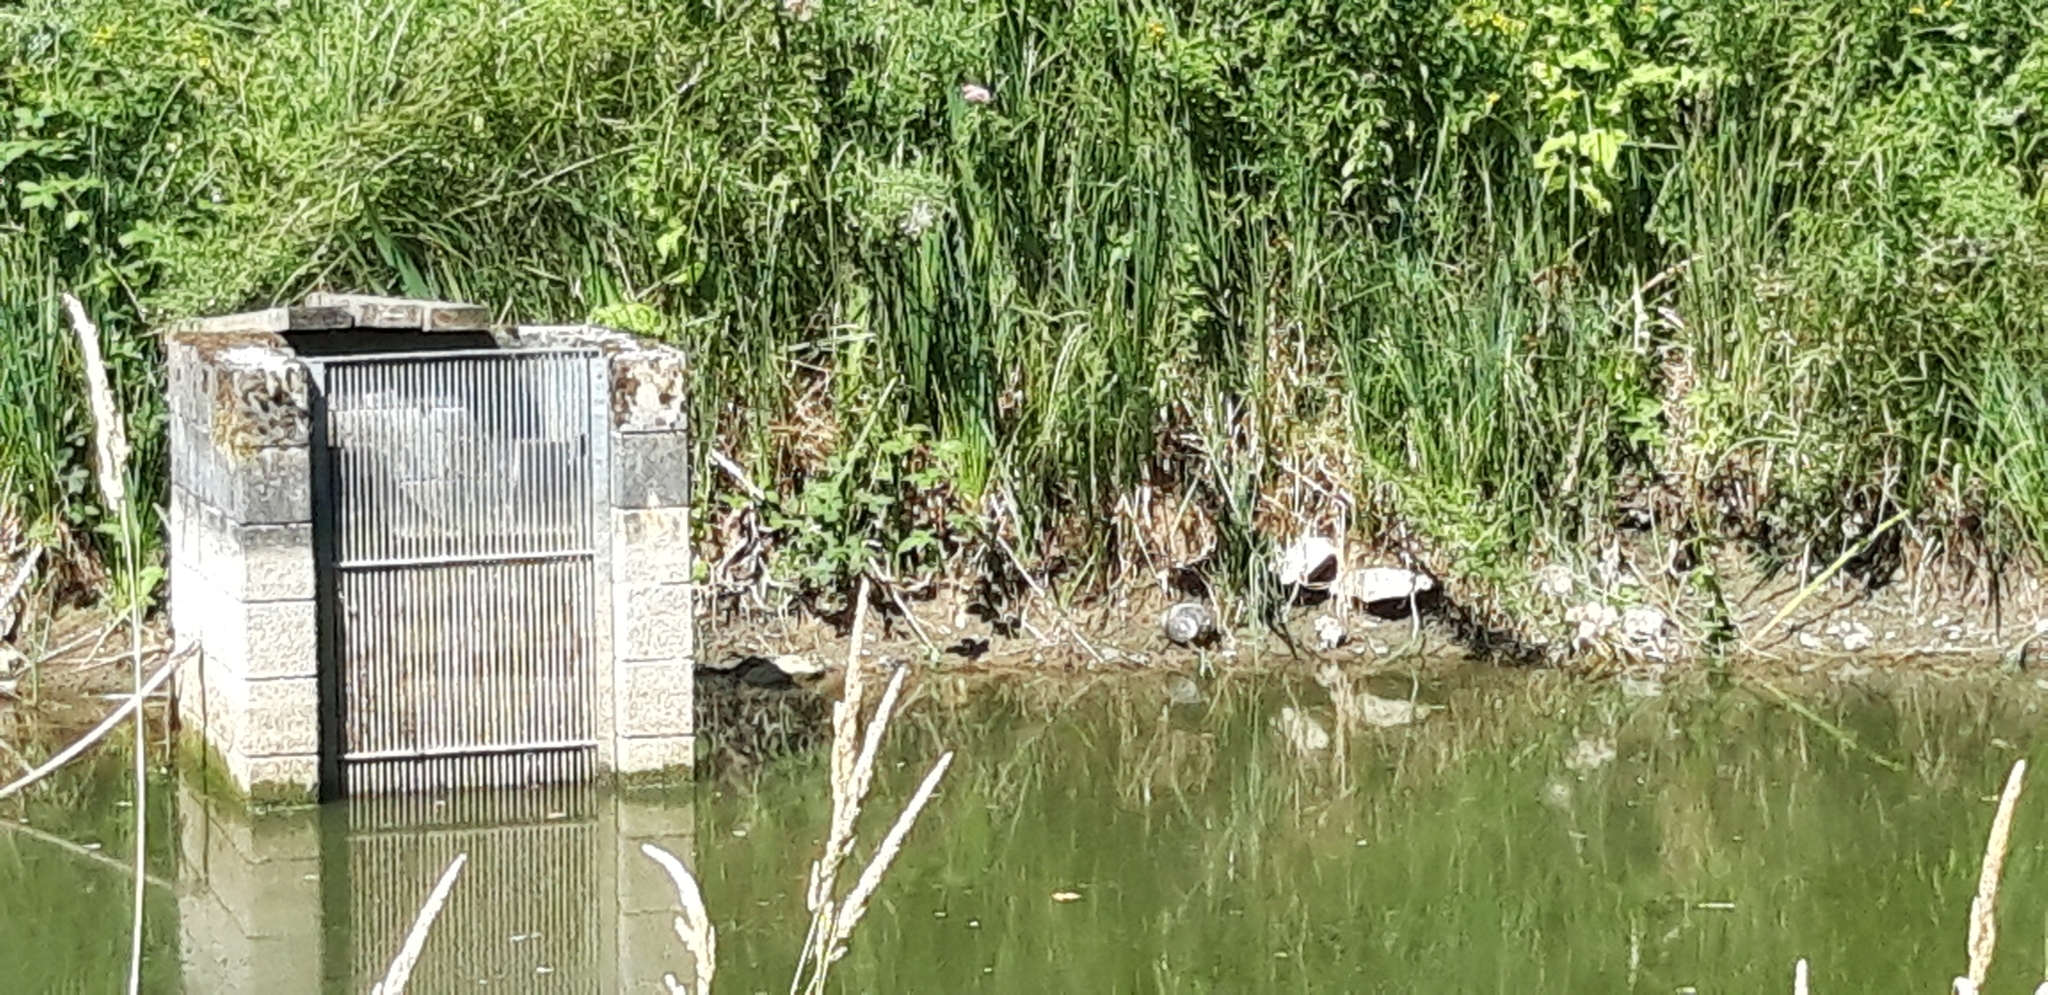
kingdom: Animalia
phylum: Chordata
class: Testudines
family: Emydidae
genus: Trachemys
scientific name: Trachemys scripta
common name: Slider
